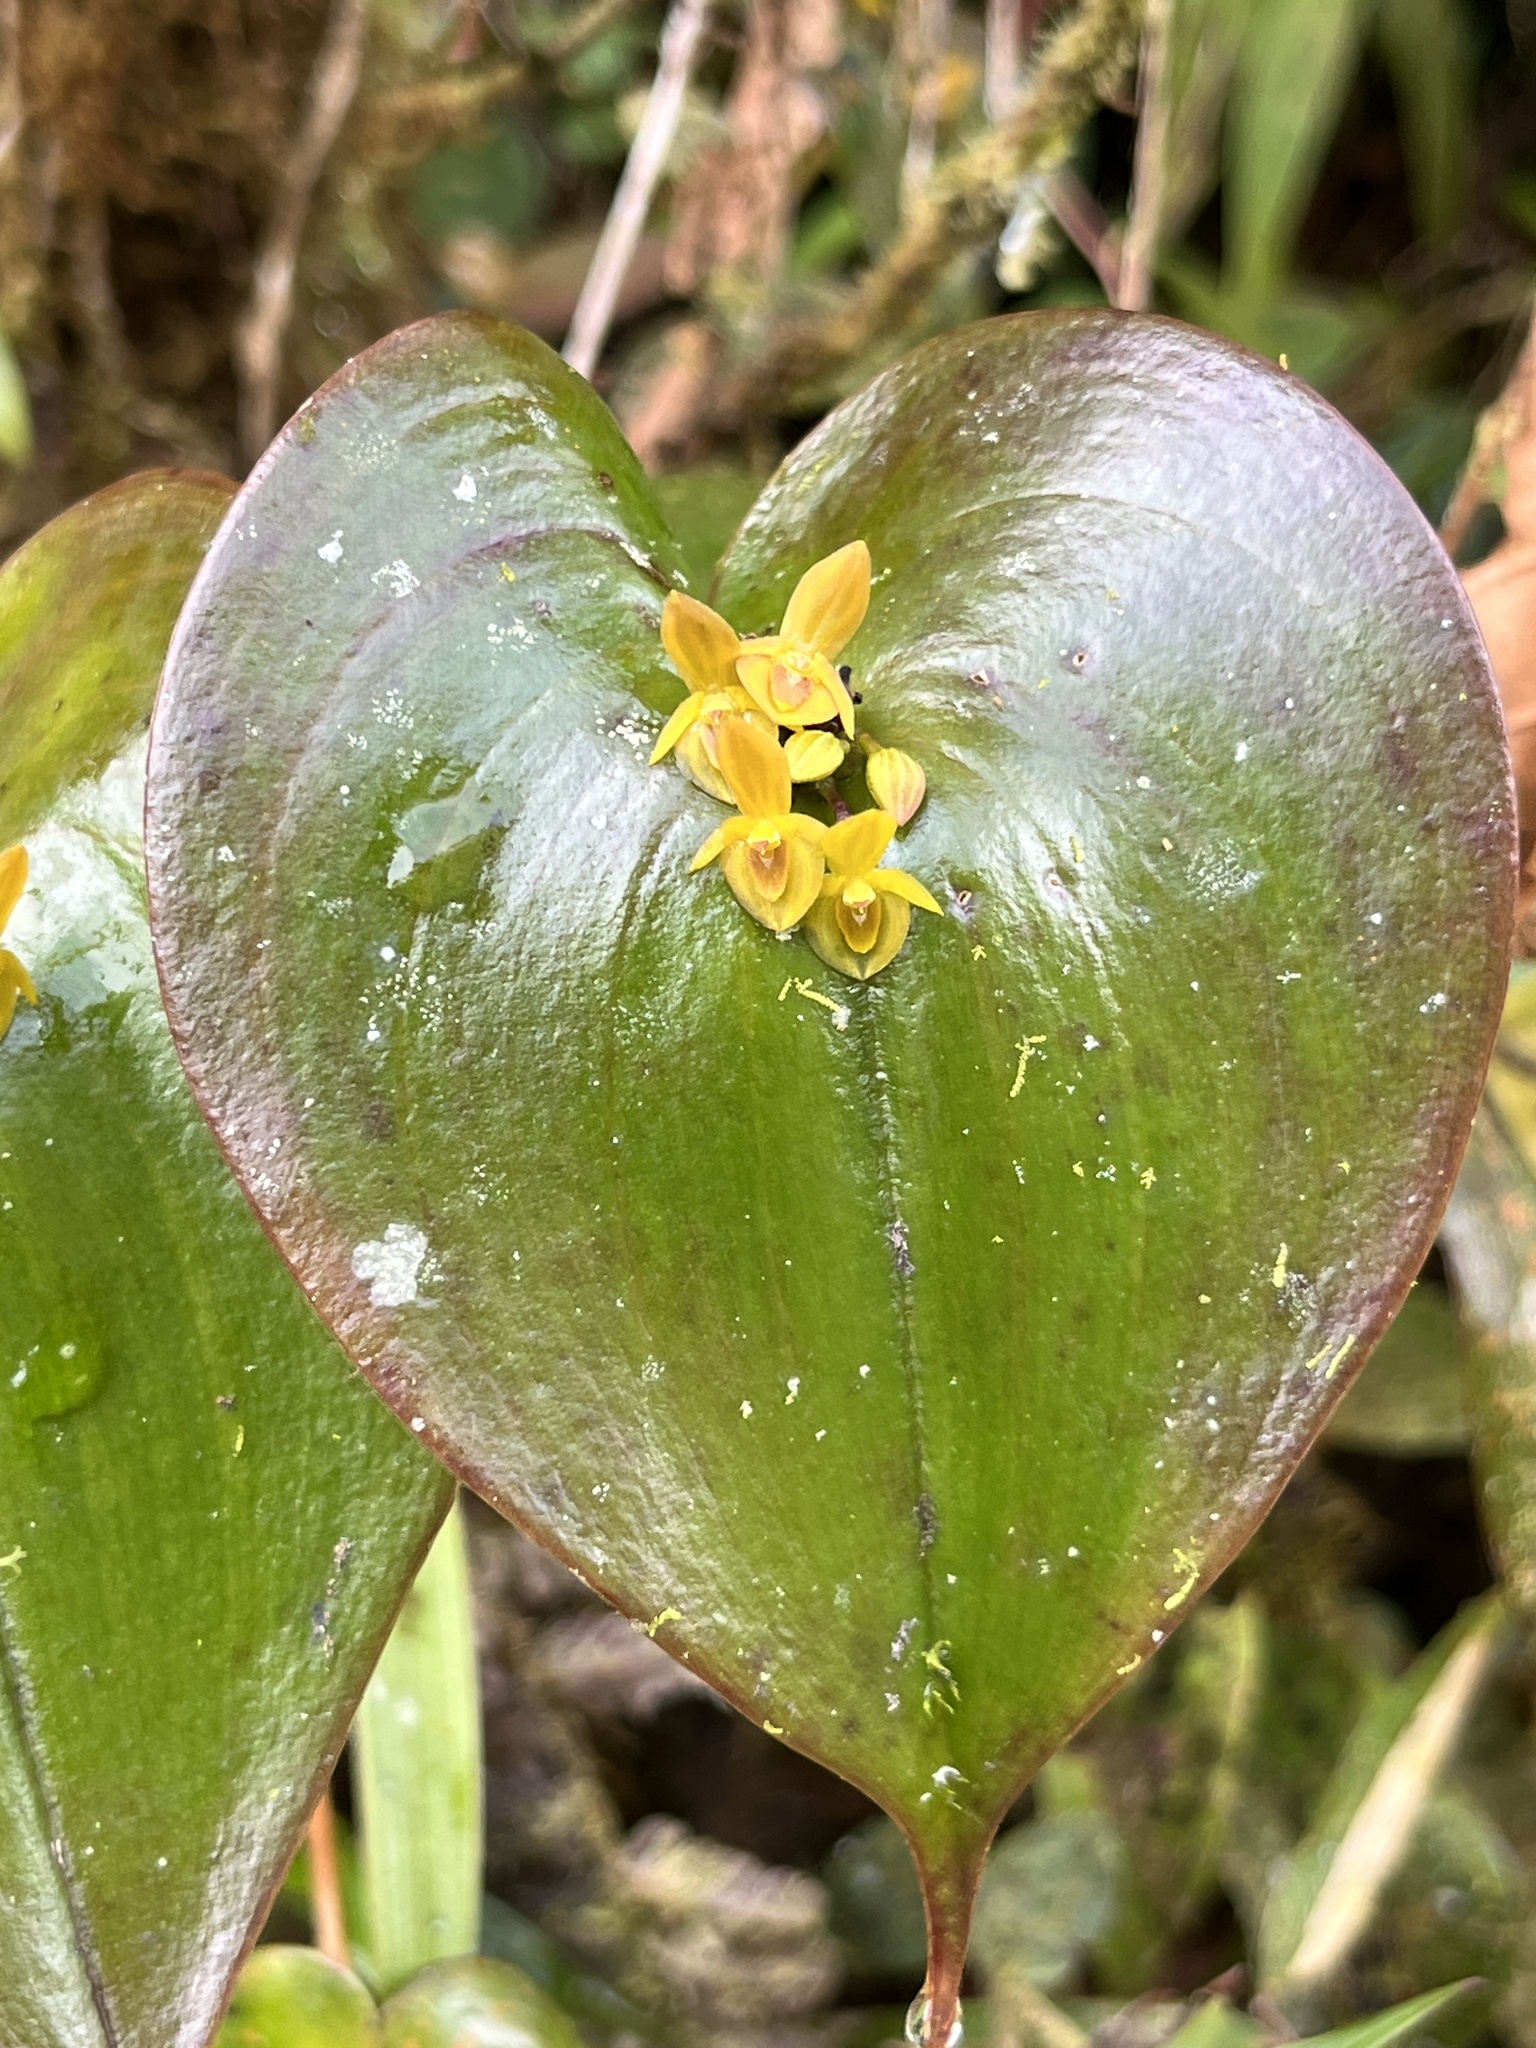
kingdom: Plantae
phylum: Tracheophyta
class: Liliopsida
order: Asparagales
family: Orchidaceae
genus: Pleurothallis
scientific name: Pleurothallis cordata
